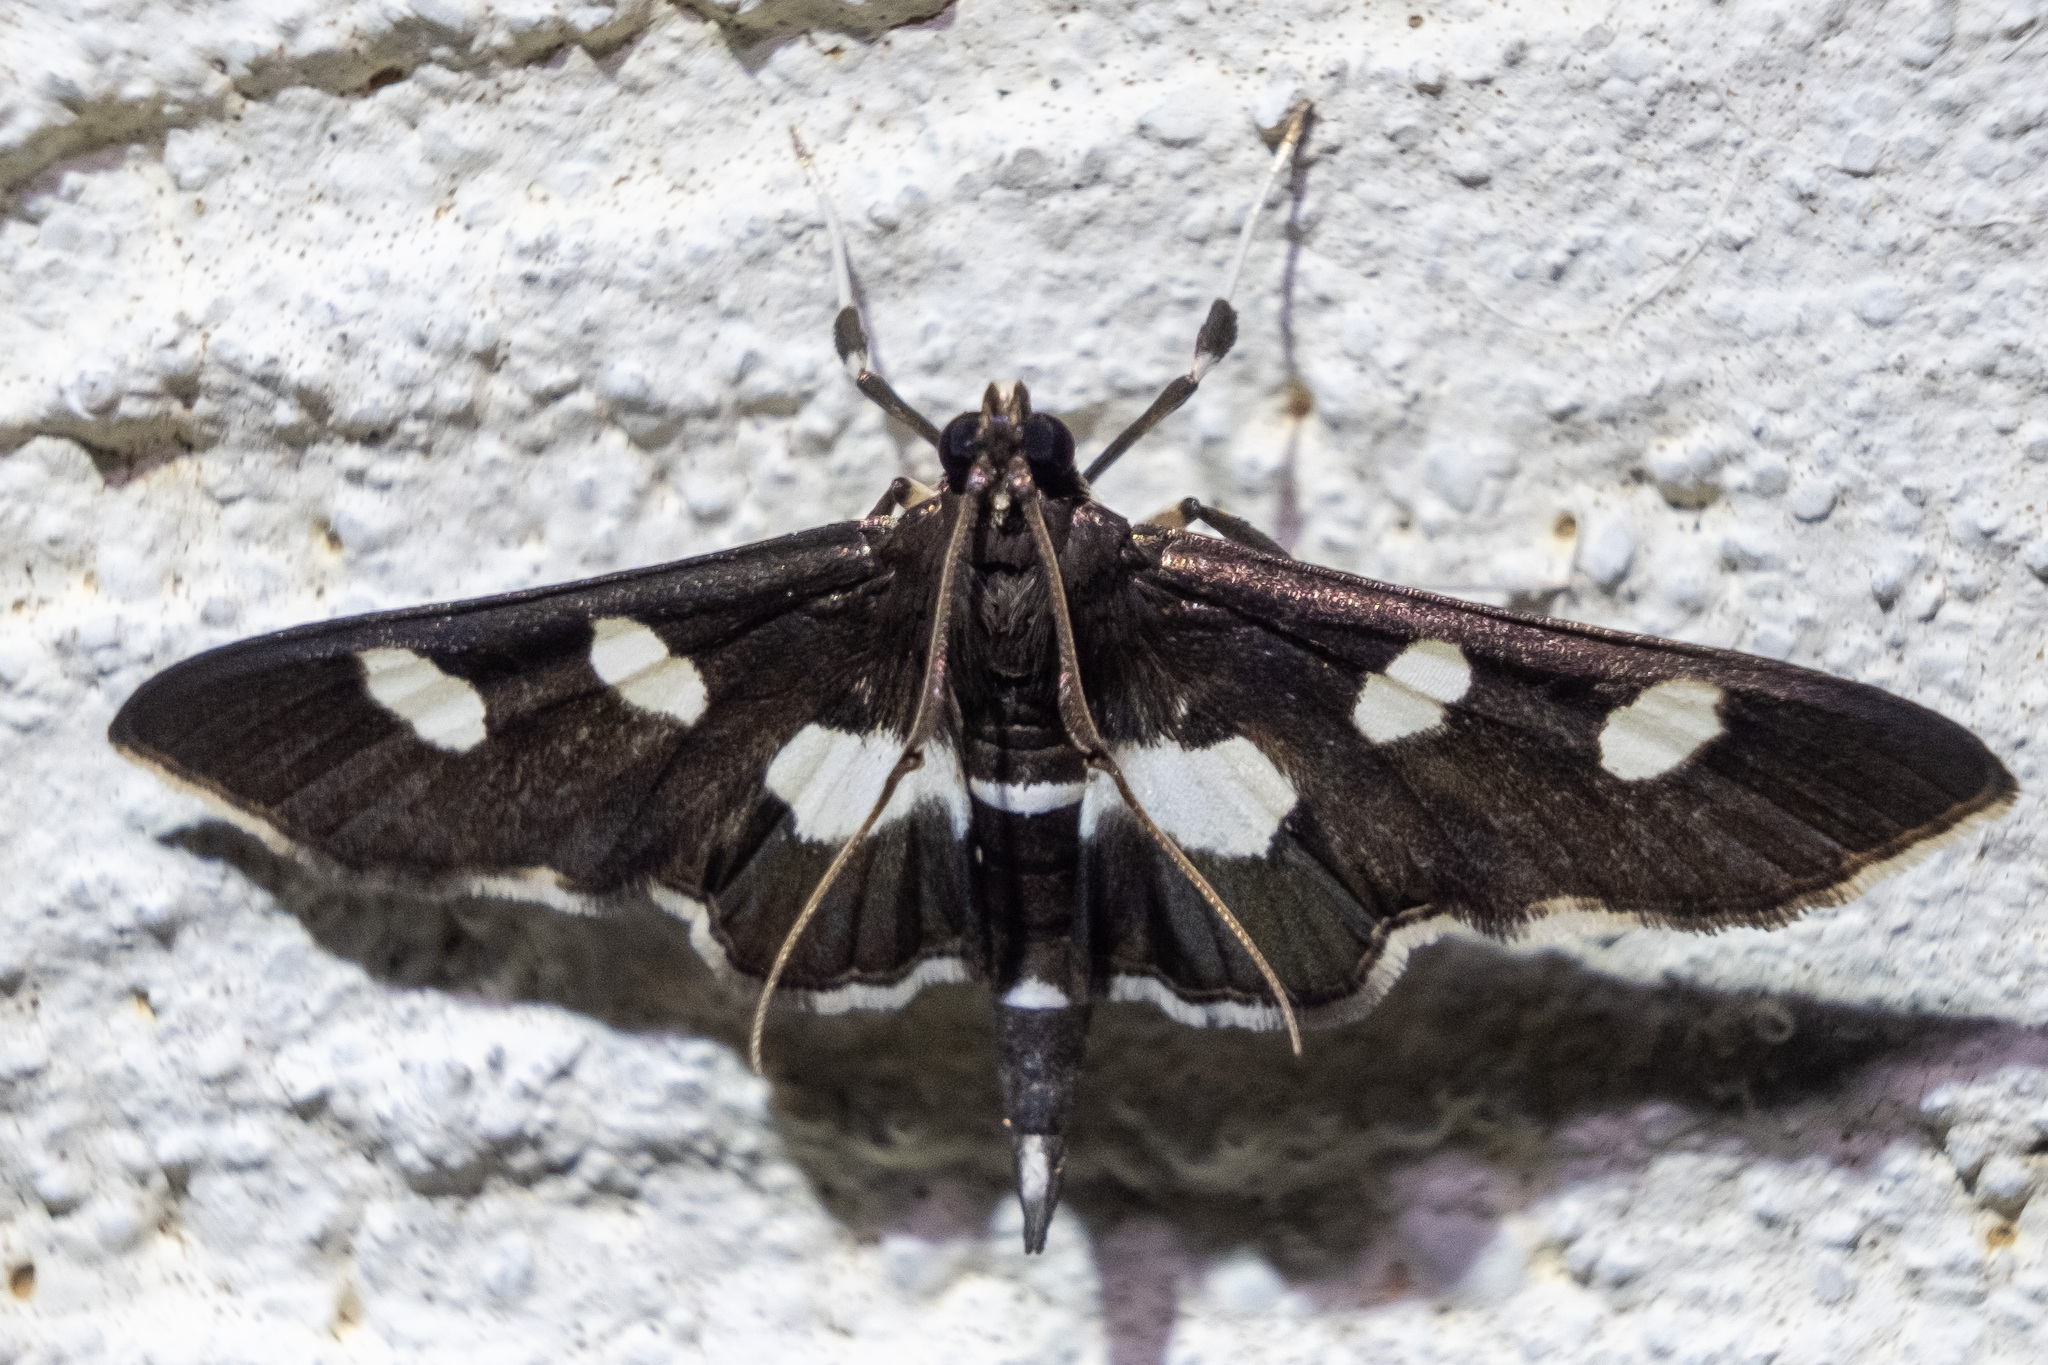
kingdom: Animalia
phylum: Arthropoda
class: Insecta
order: Lepidoptera
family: Crambidae
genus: Desmia
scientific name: Desmia
